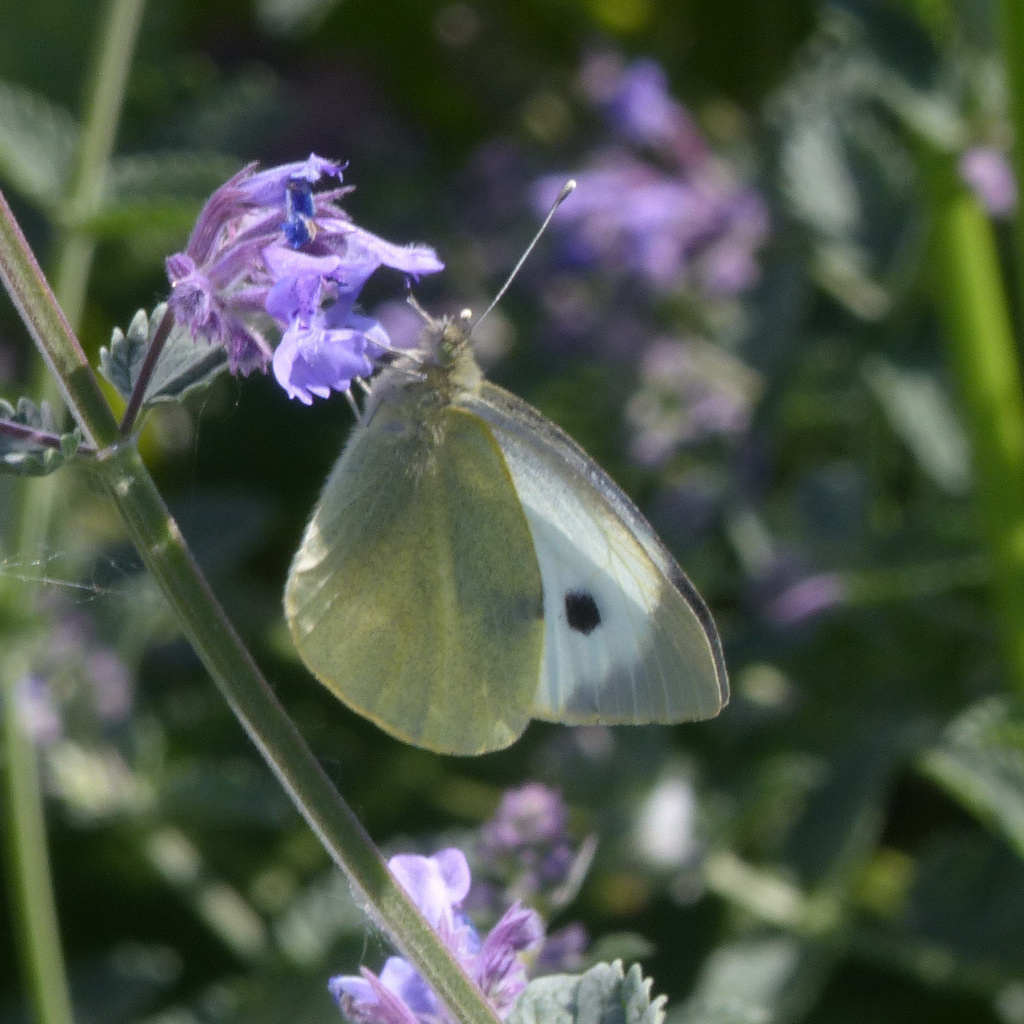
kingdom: Animalia
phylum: Arthropoda
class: Insecta
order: Lepidoptera
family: Pieridae
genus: Pieris
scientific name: Pieris brassicae
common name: Large white
